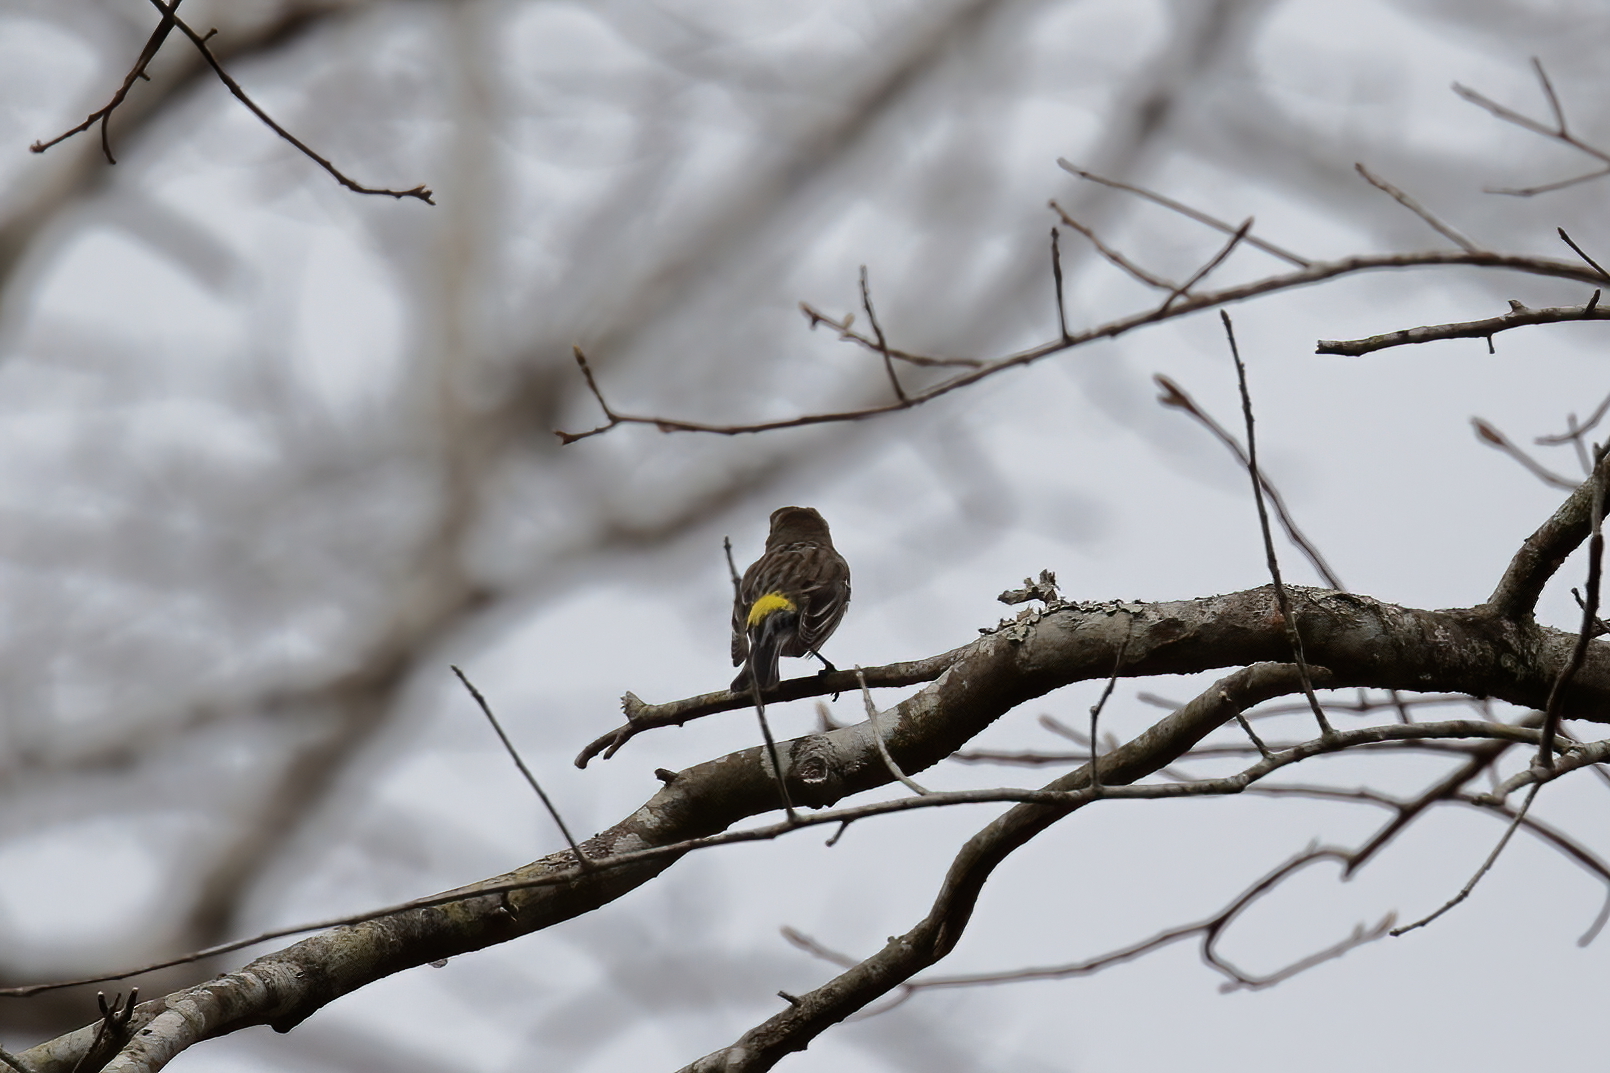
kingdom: Animalia
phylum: Chordata
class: Aves
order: Passeriformes
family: Parulidae
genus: Setophaga
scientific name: Setophaga coronata
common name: Myrtle warbler
